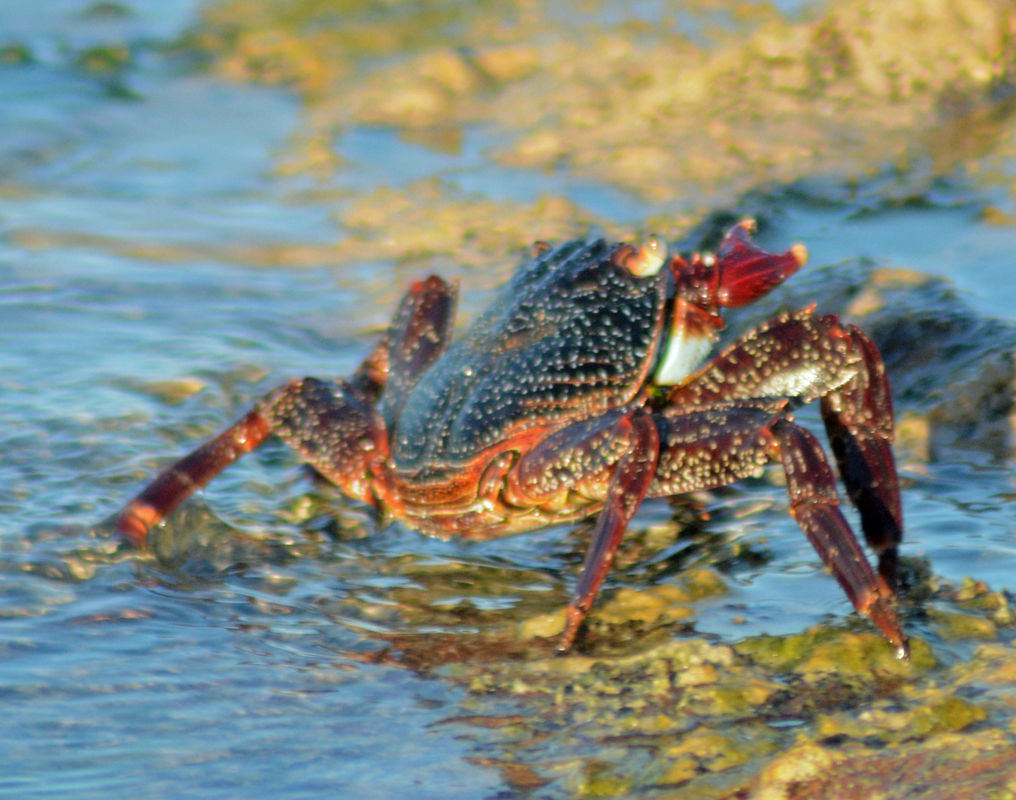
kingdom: Animalia
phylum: Arthropoda
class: Malacostraca
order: Decapoda
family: Grapsidae
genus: Grapsus
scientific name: Grapsus grapsus
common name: Sally lightfoot
